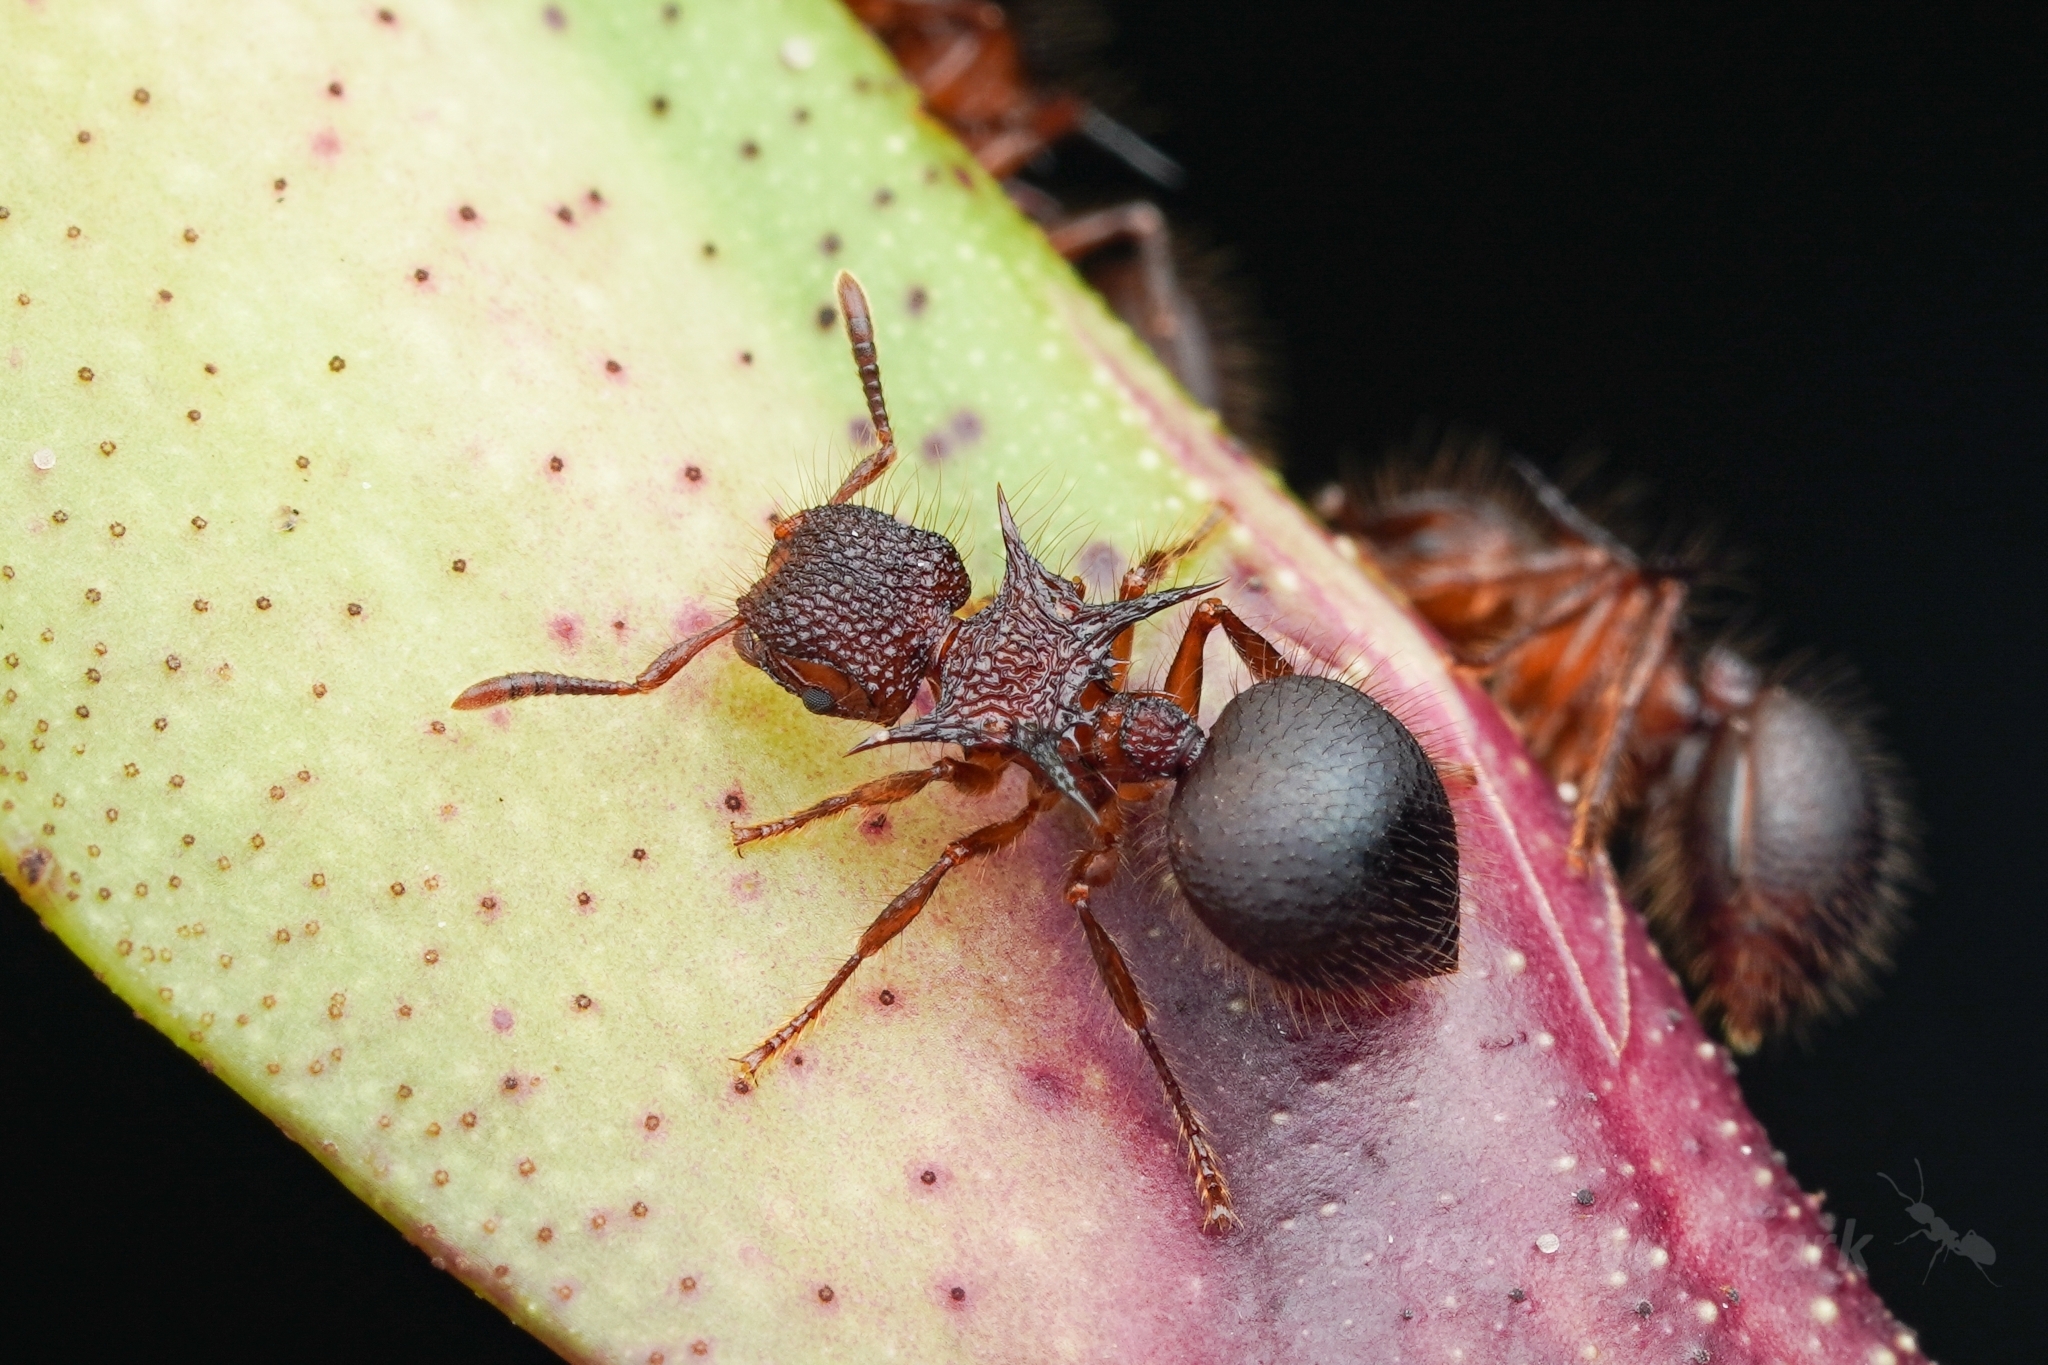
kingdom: Animalia
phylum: Arthropoda
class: Insecta
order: Hymenoptera
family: Formicidae
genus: Meranoplus
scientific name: Meranoplus mucronatus
